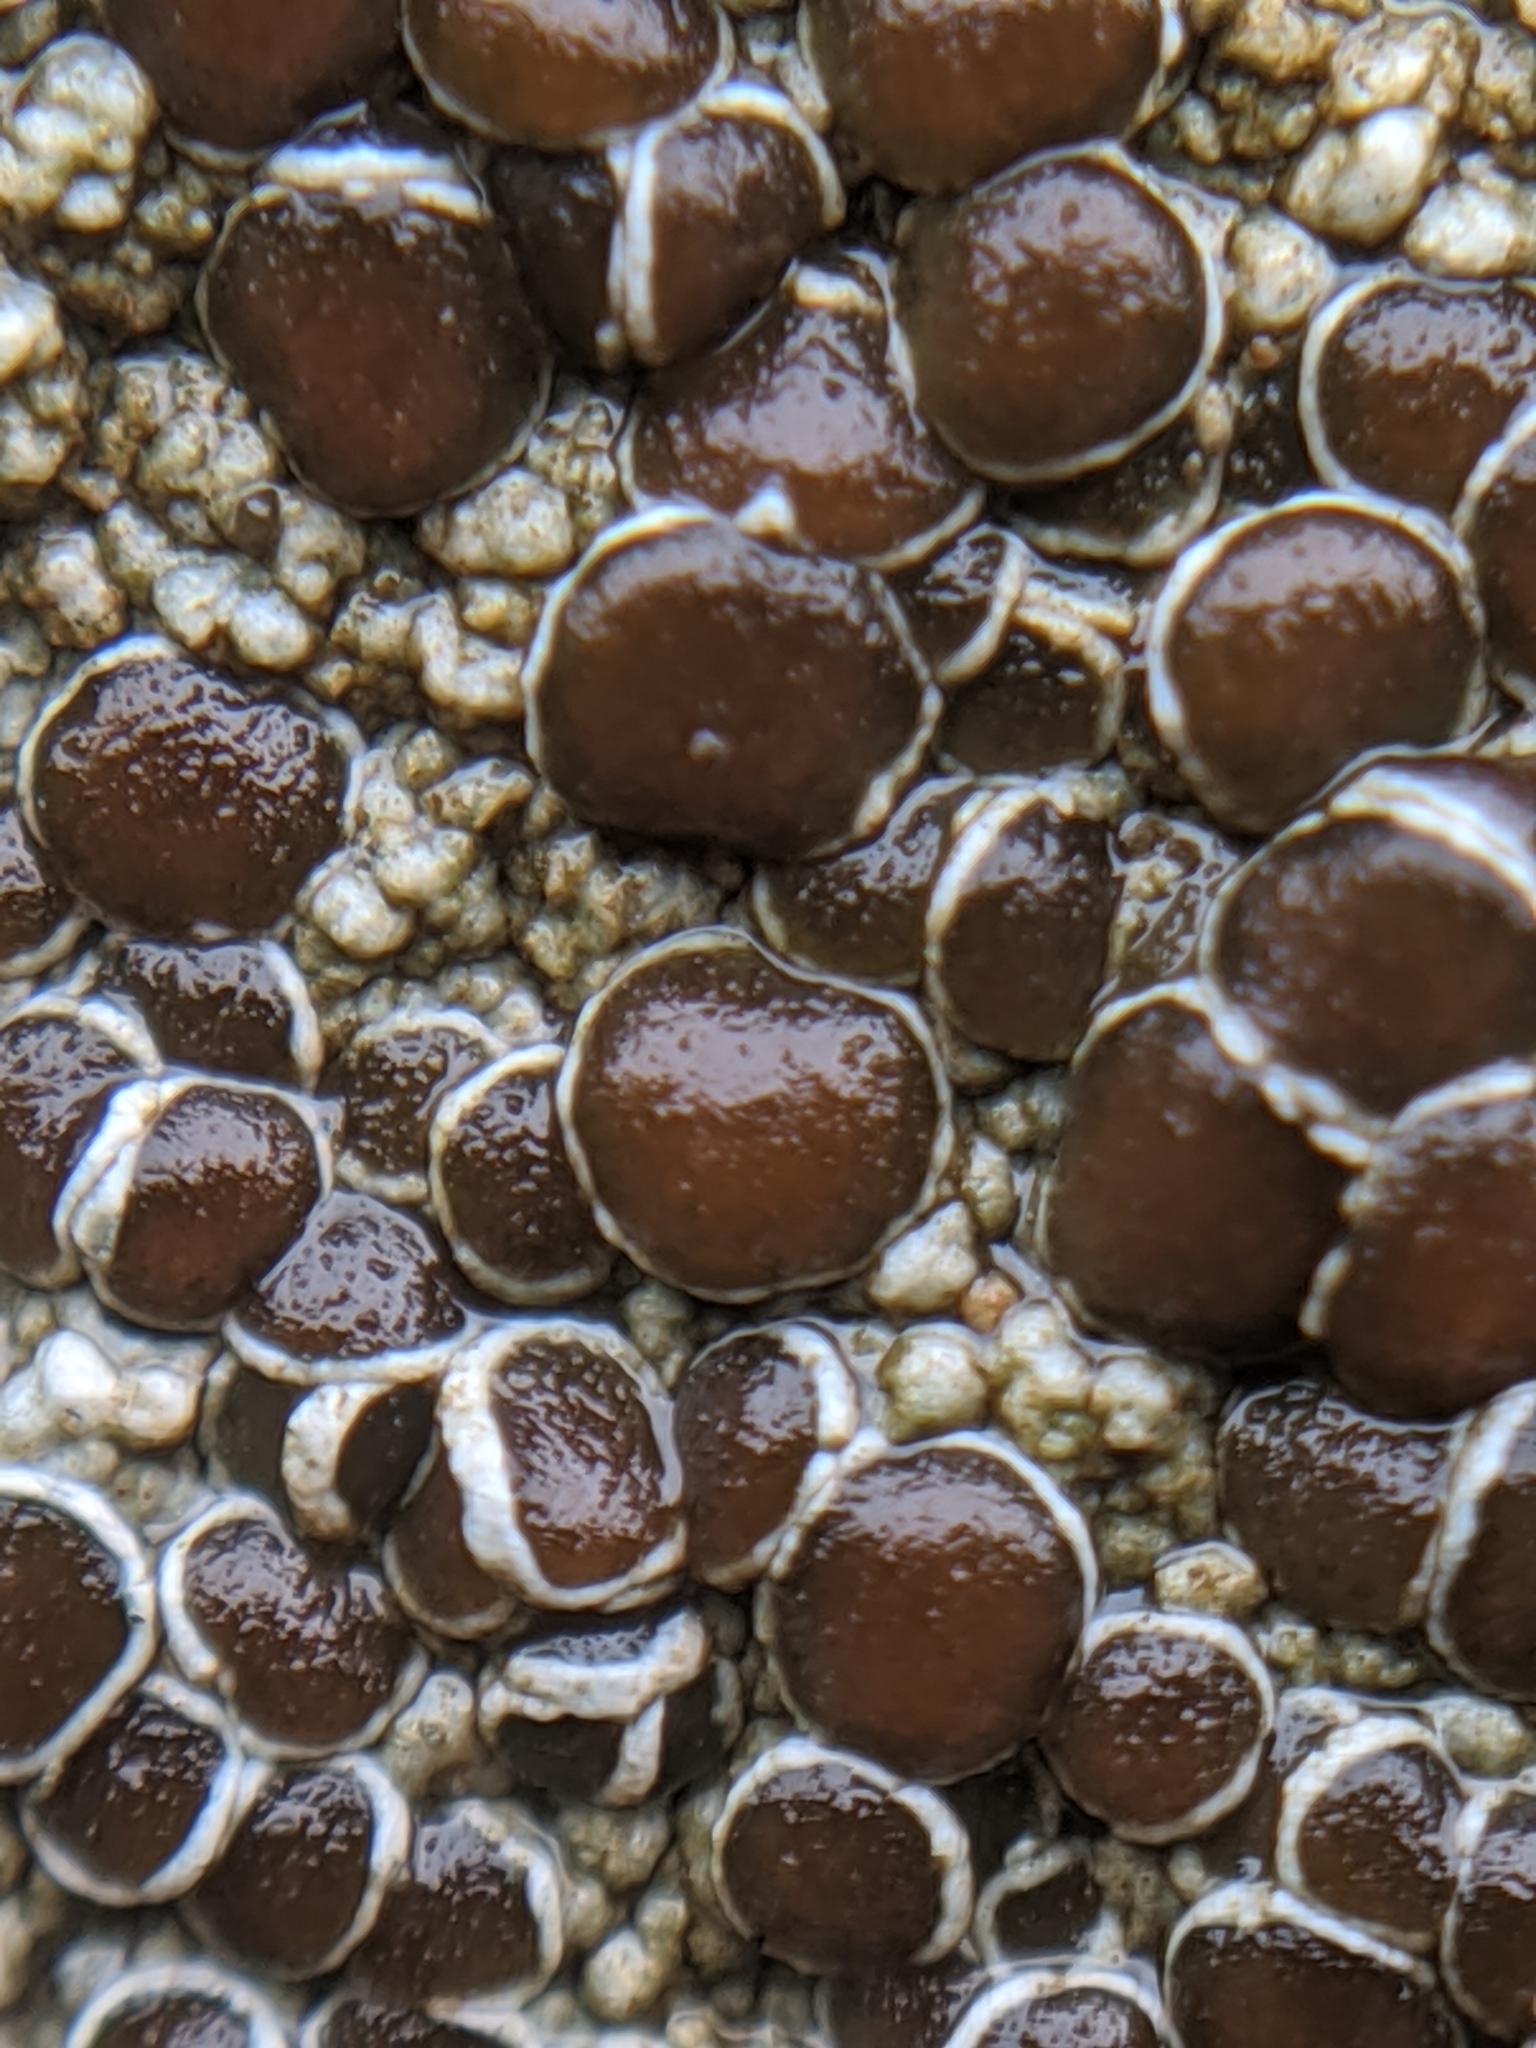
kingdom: Fungi
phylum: Ascomycota
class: Lecanoromycetes
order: Lecanorales
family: Lecanoraceae
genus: Omphalodina
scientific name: Omphalodina pseudistera
